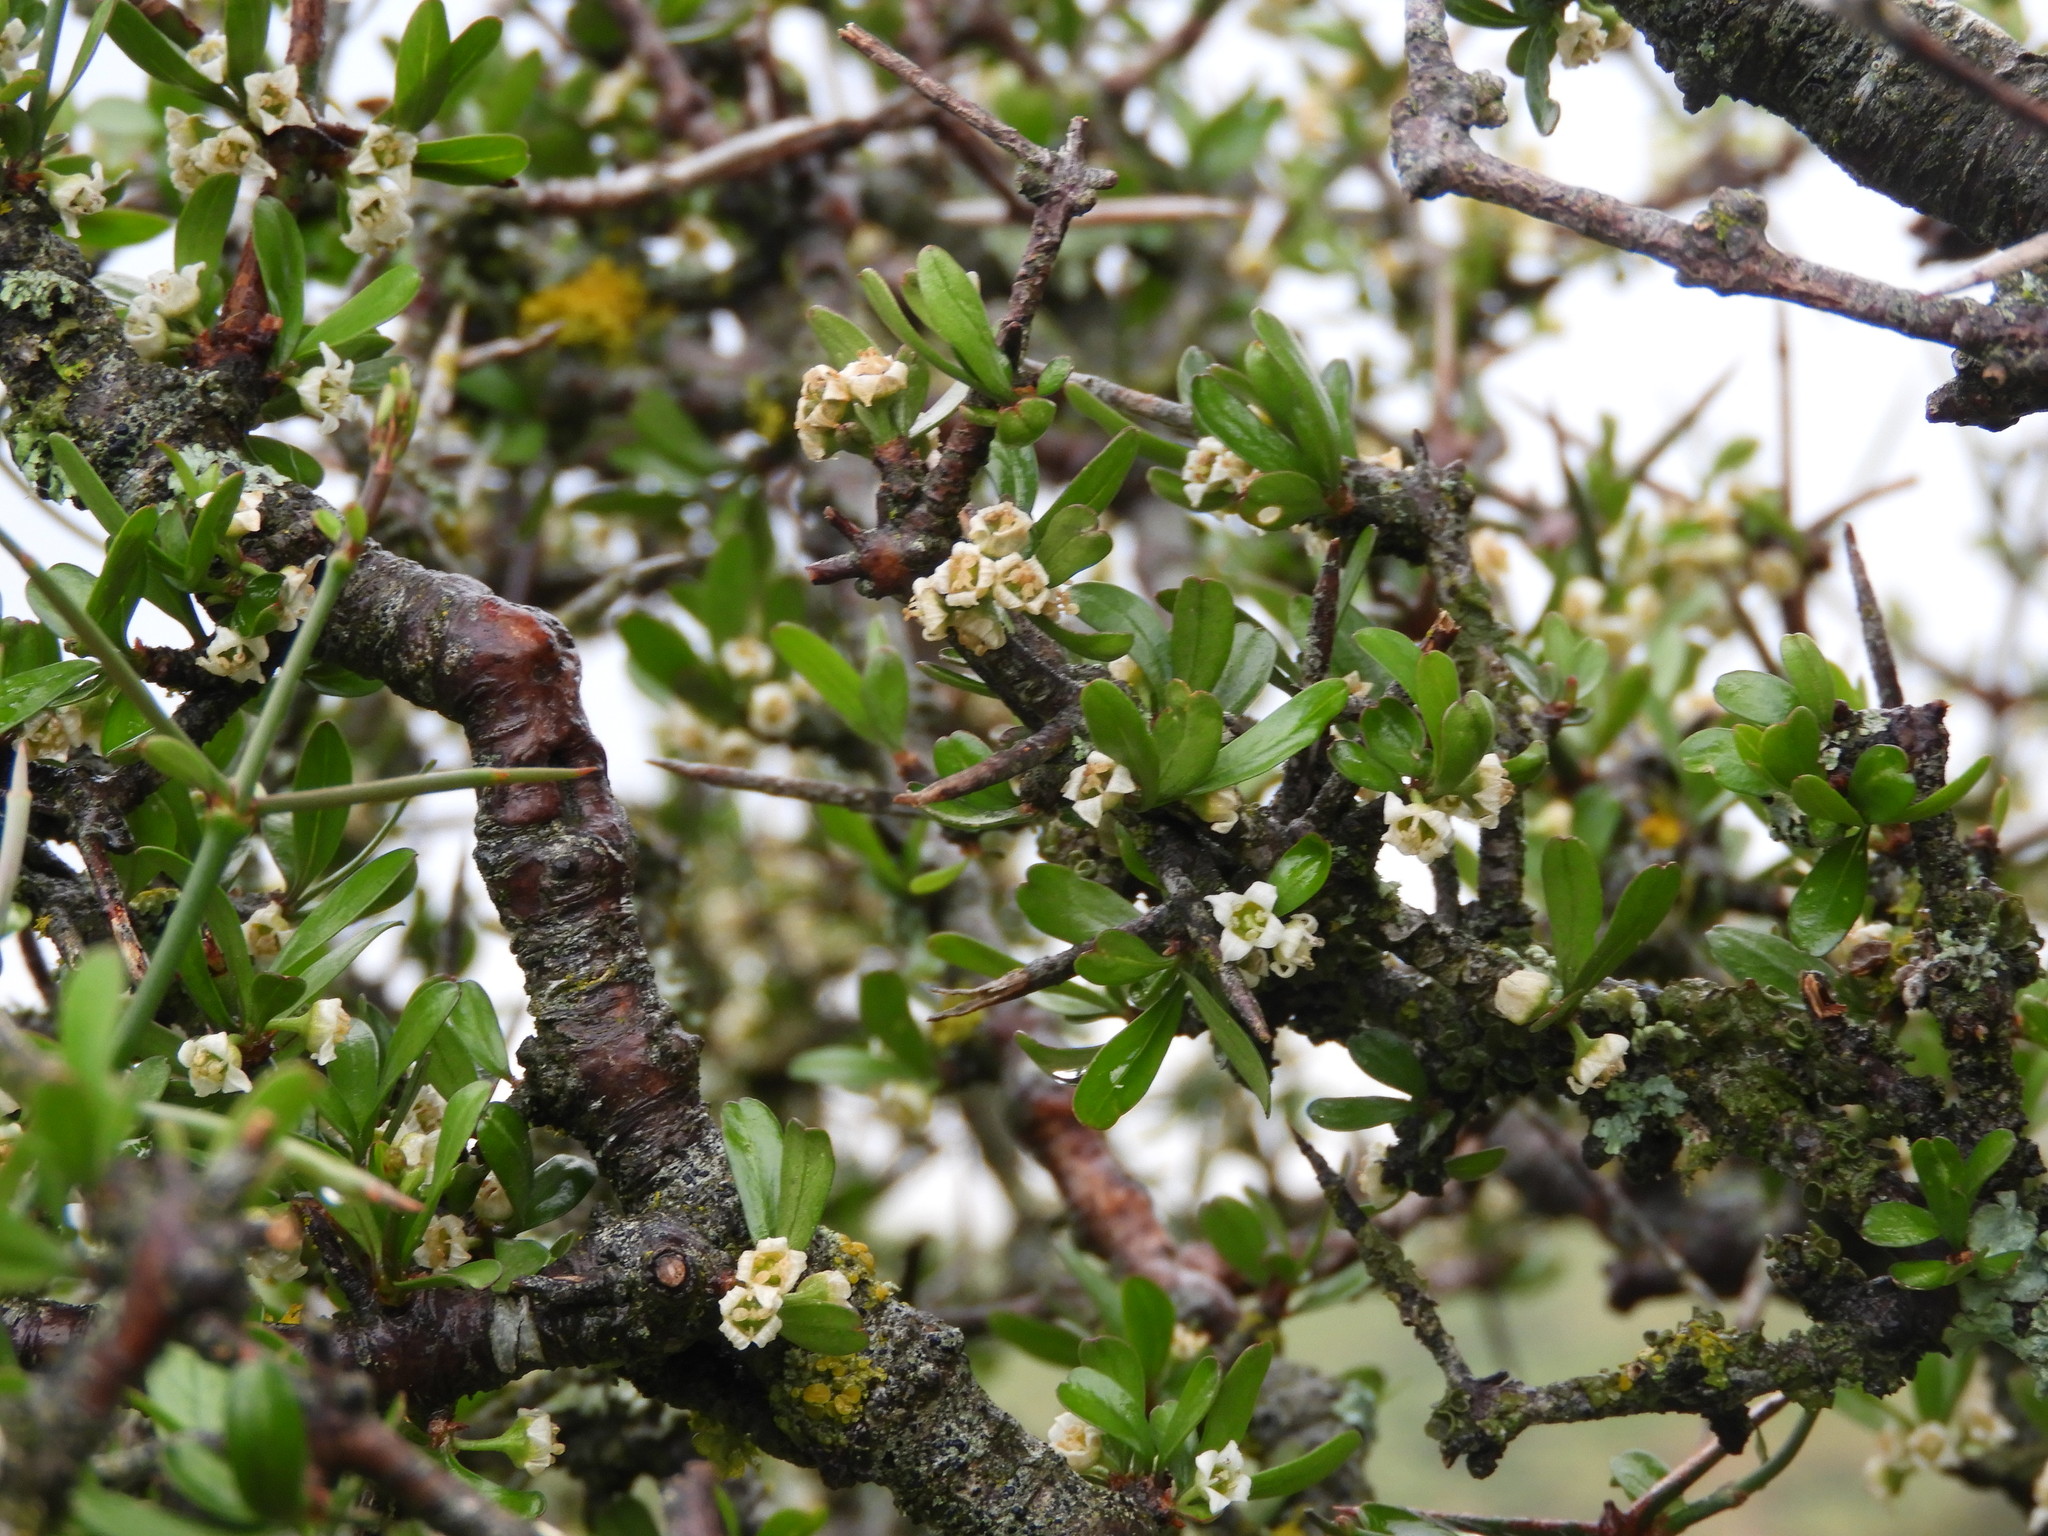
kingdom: Plantae
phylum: Tracheophyta
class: Magnoliopsida
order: Rosales
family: Rhamnaceae
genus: Discaria
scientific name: Discaria toumatou
